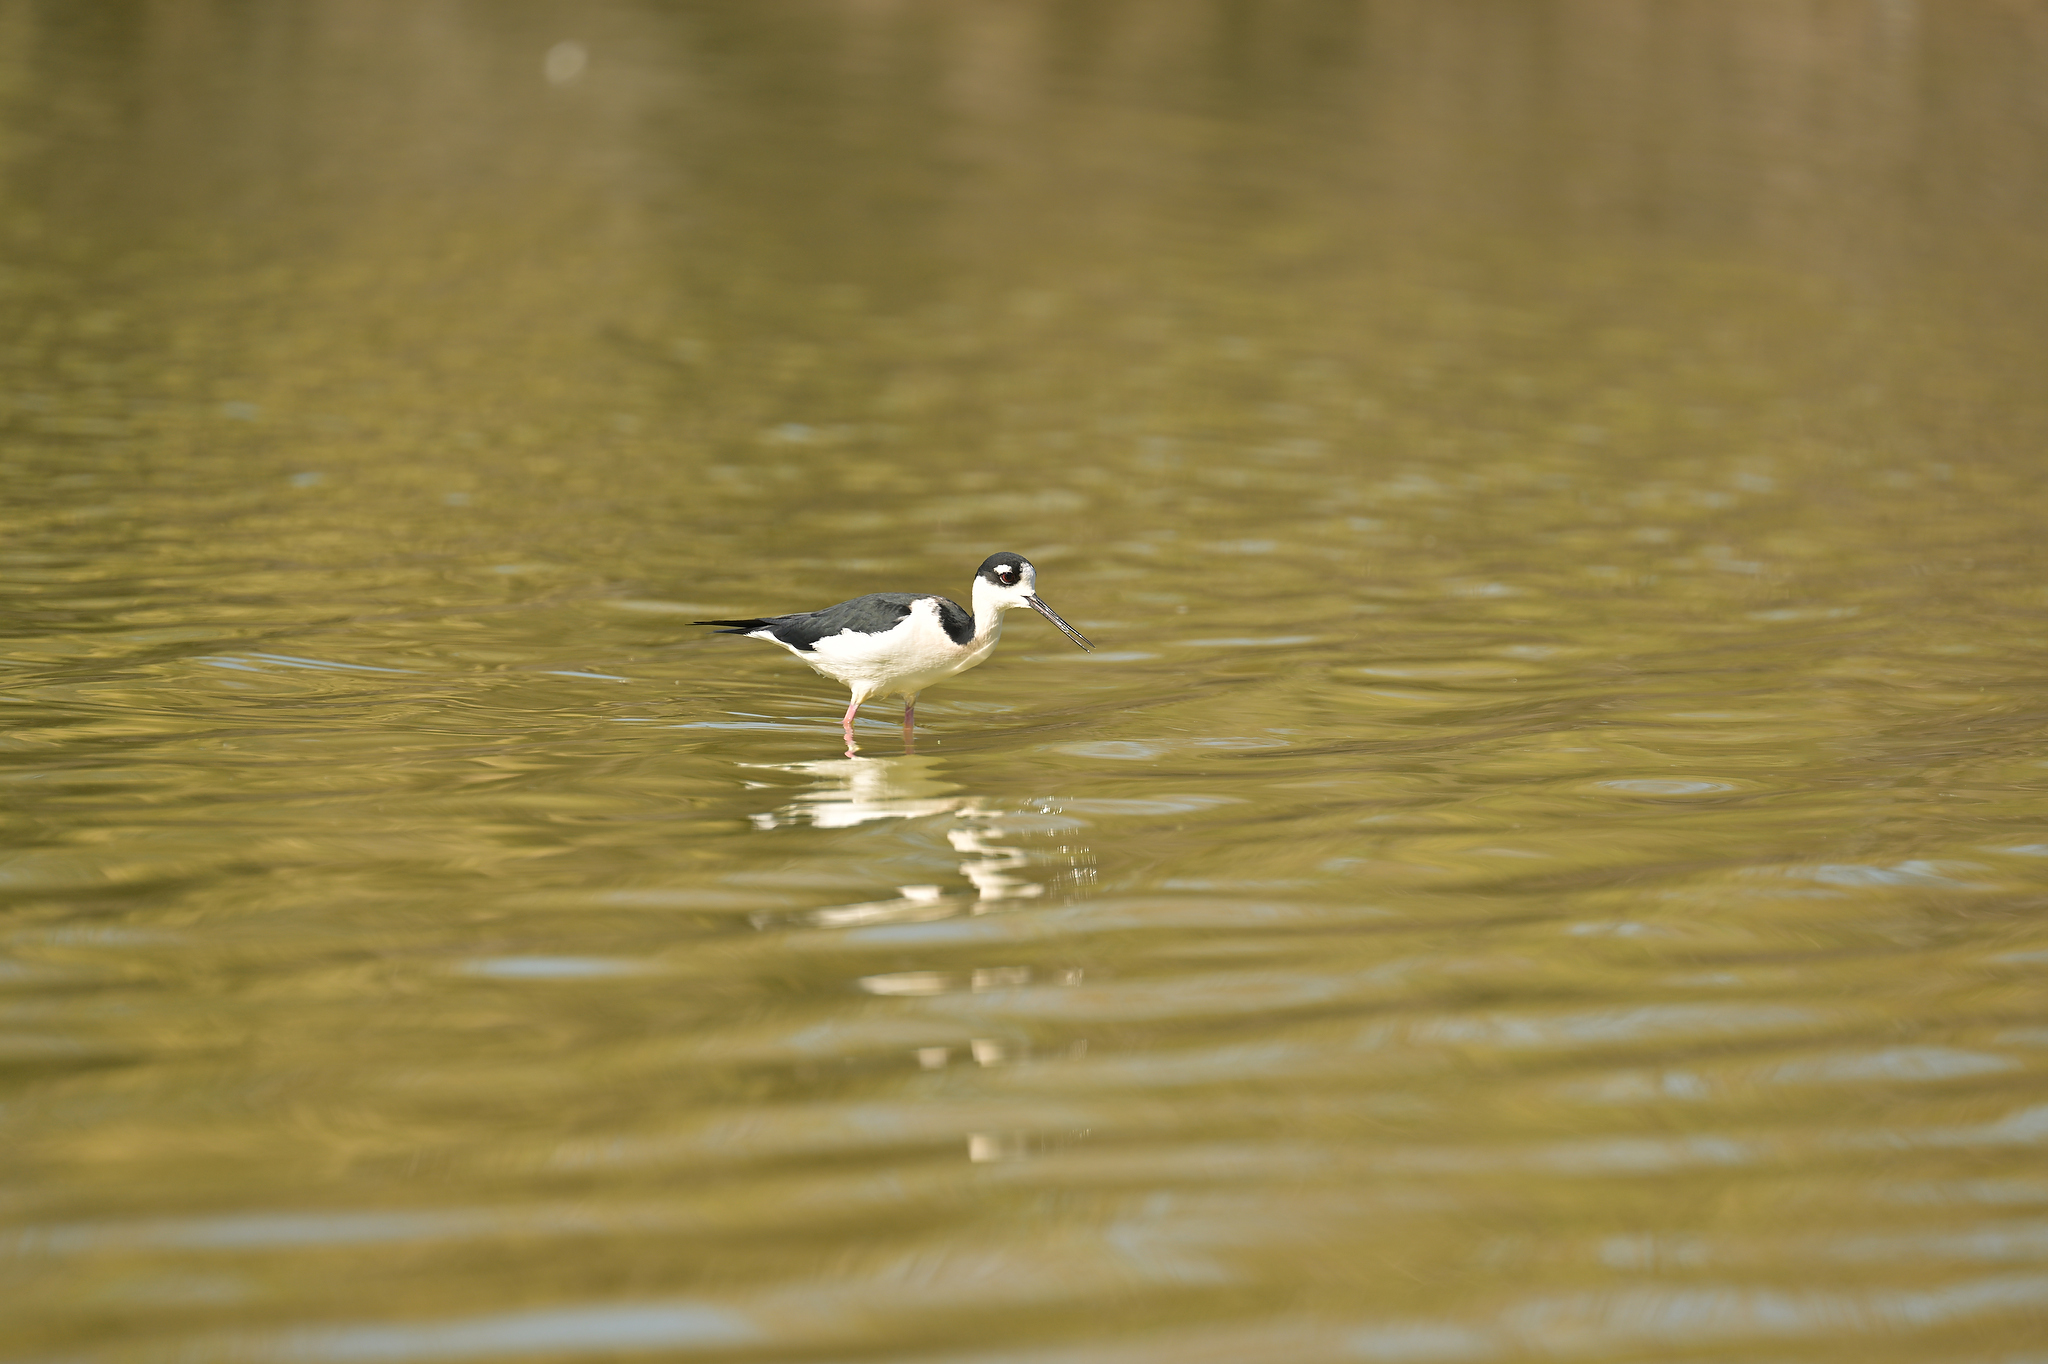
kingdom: Animalia
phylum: Chordata
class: Aves
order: Charadriiformes
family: Recurvirostridae
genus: Himantopus
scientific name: Himantopus mexicanus
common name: Black-necked stilt
